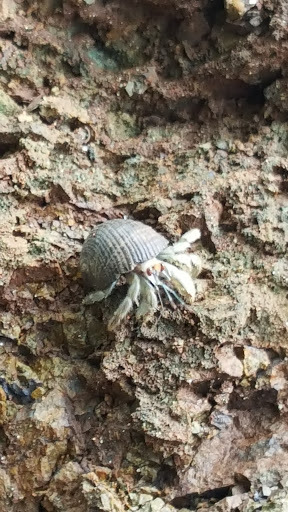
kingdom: Animalia
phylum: Arthropoda
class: Malacostraca
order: Decapoda
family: Coenobitidae
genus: Coenobita
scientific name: Coenobita compressus
